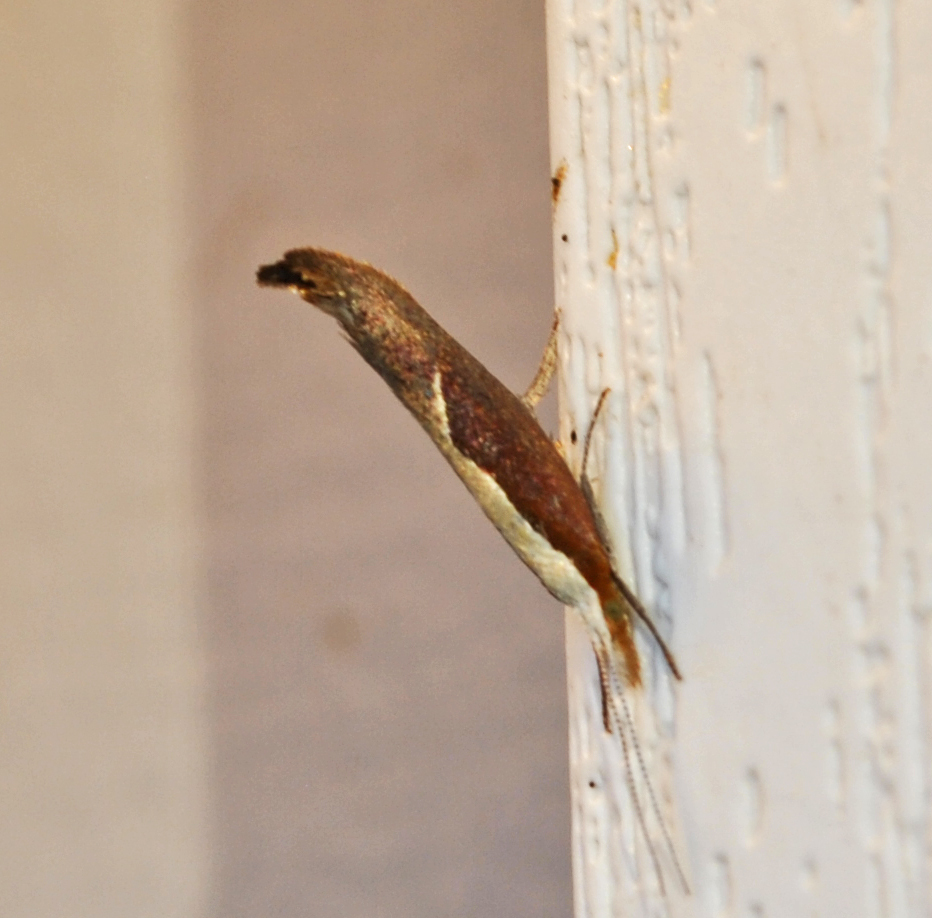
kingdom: Animalia
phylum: Arthropoda
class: Insecta
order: Lepidoptera
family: Ypsolophidae
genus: Ypsolopha
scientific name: Ypsolopha dentella
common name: Honeysuckle moth
